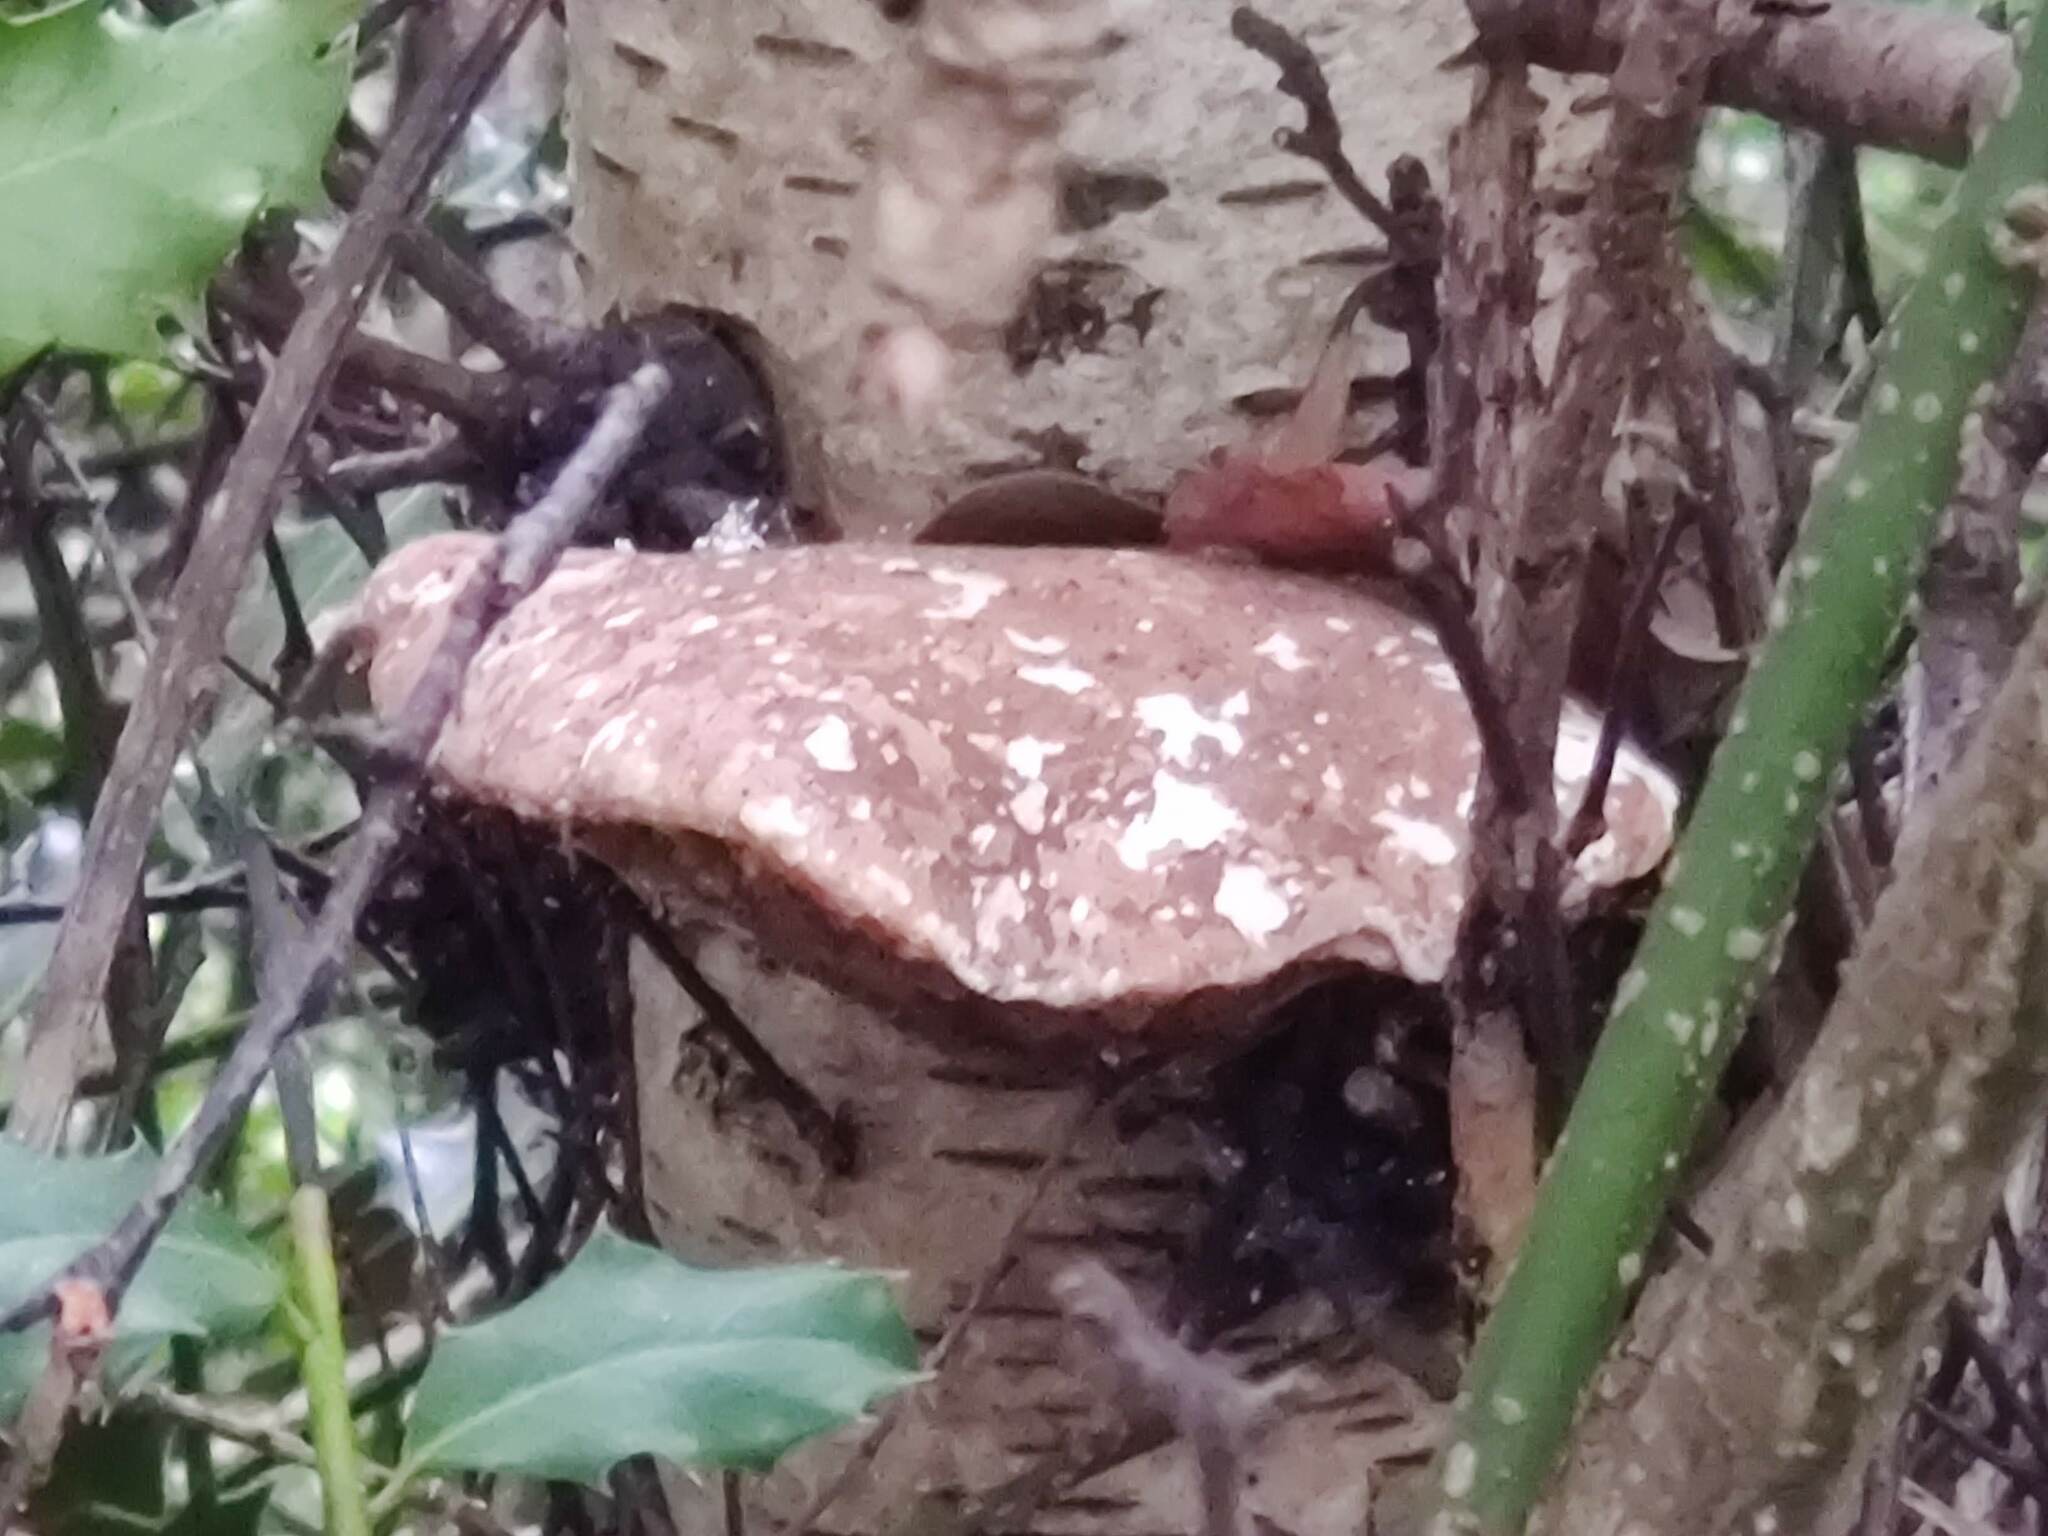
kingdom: Fungi
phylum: Basidiomycota
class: Agaricomycetes
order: Polyporales
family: Fomitopsidaceae
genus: Fomitopsis
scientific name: Fomitopsis betulina
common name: Birch polypore
